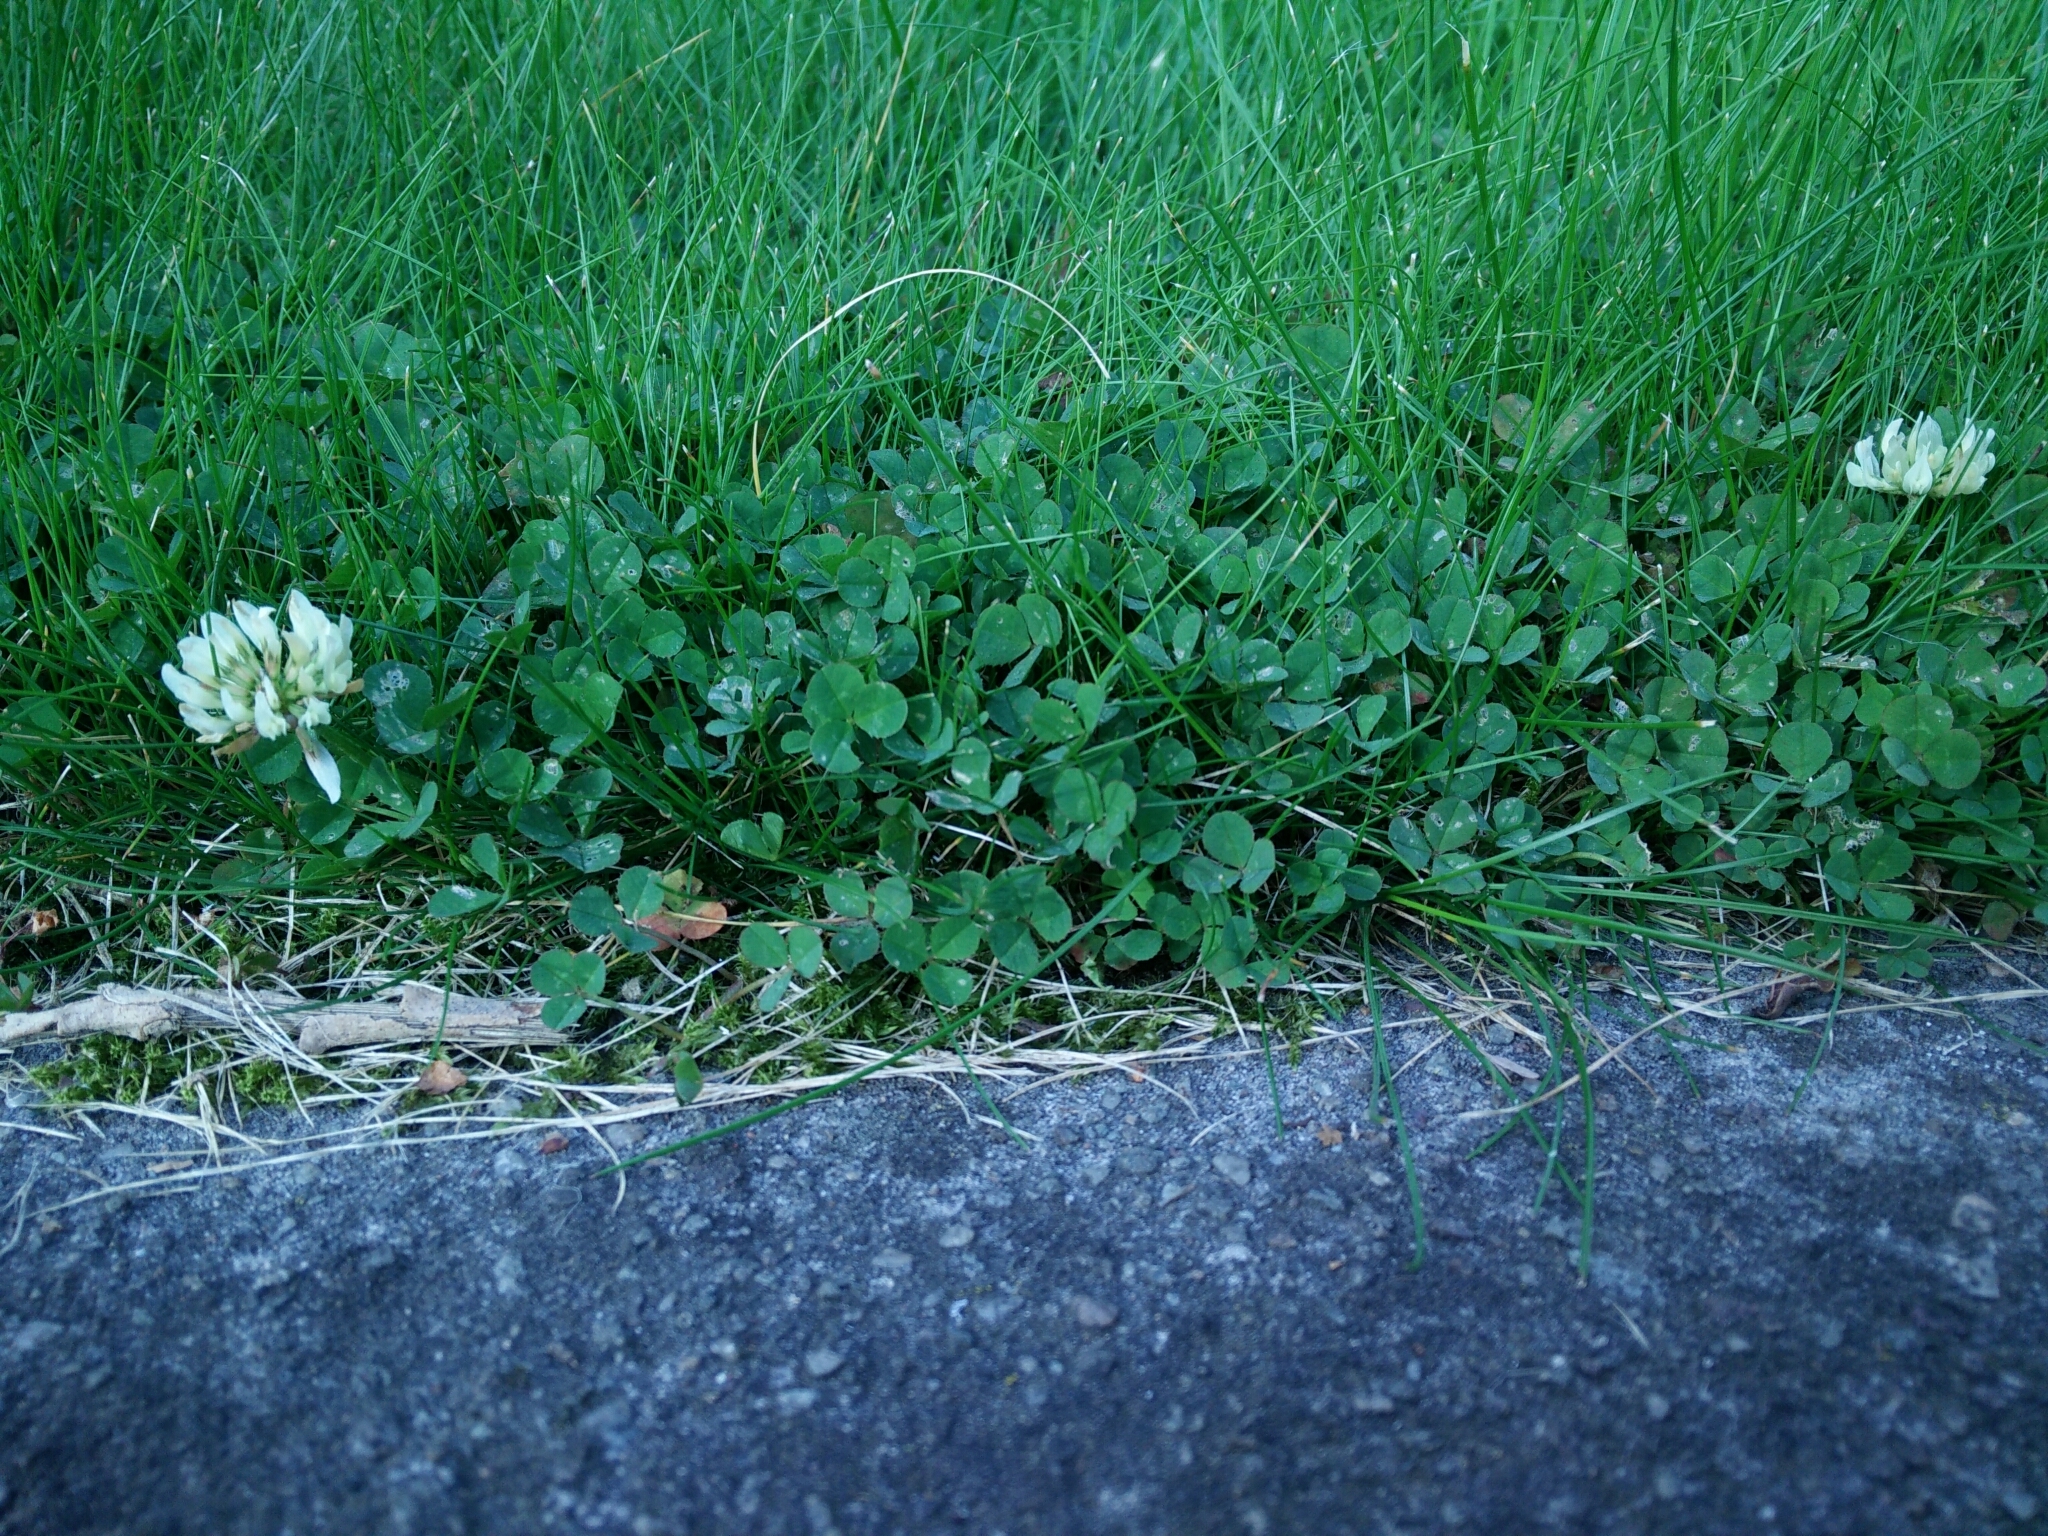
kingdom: Plantae
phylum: Tracheophyta
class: Magnoliopsida
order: Fabales
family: Fabaceae
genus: Trifolium
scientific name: Trifolium repens
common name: White clover
